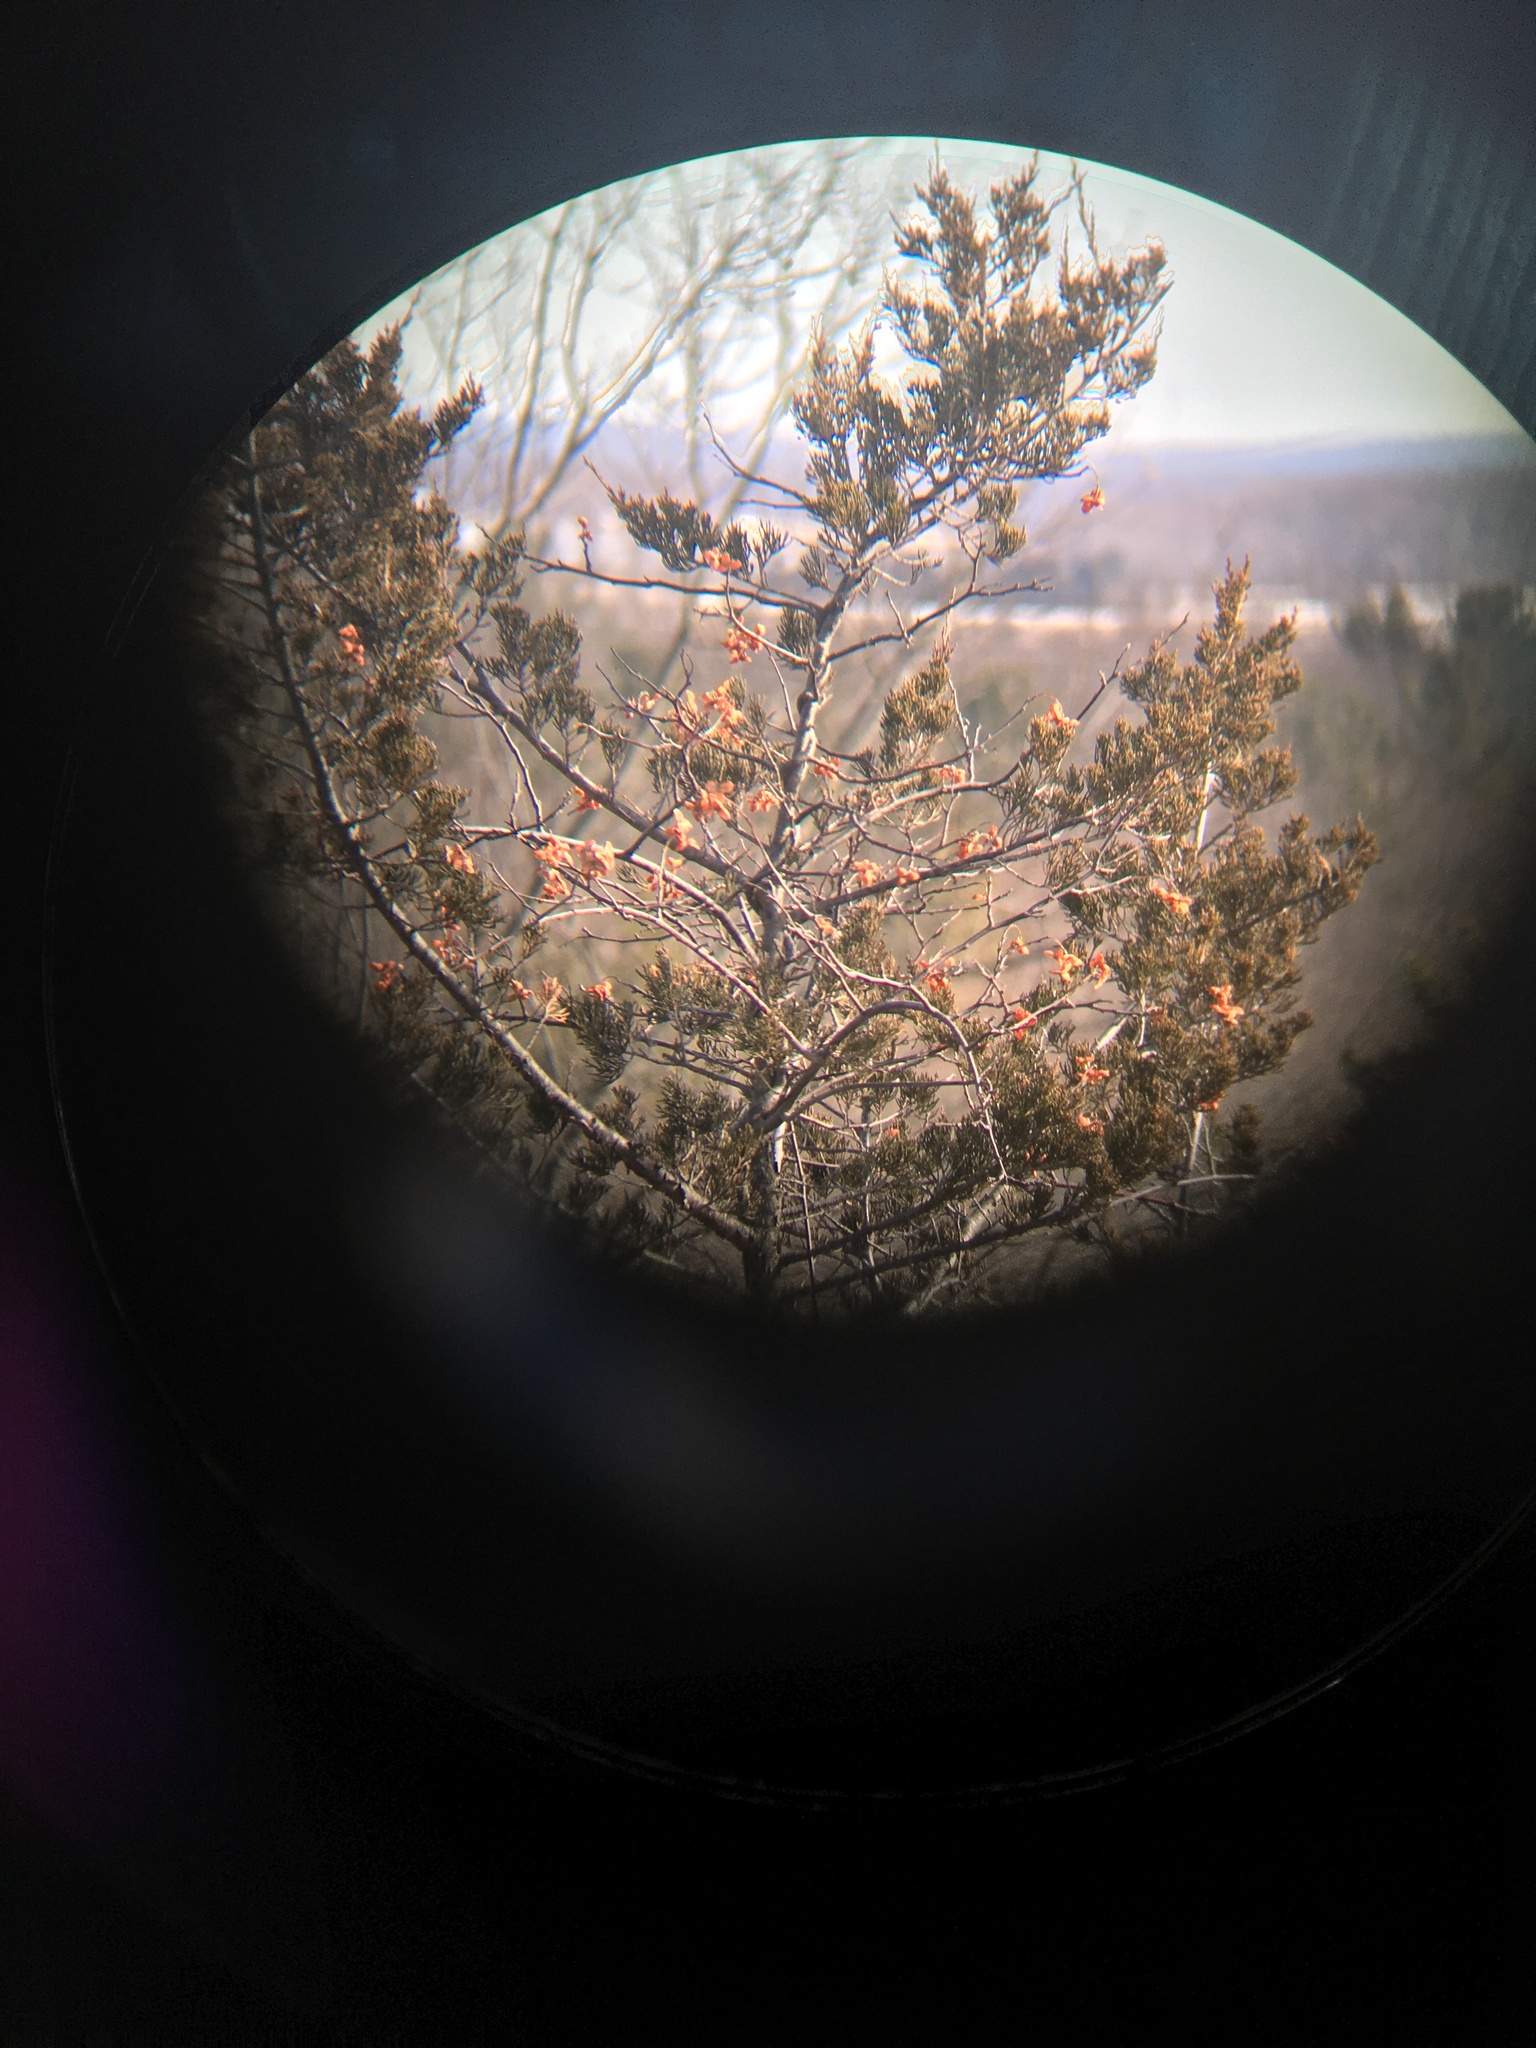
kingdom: Plantae
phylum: Tracheophyta
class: Magnoliopsida
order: Celastrales
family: Celastraceae
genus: Celastrus
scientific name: Celastrus scandens
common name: American bittersweet
